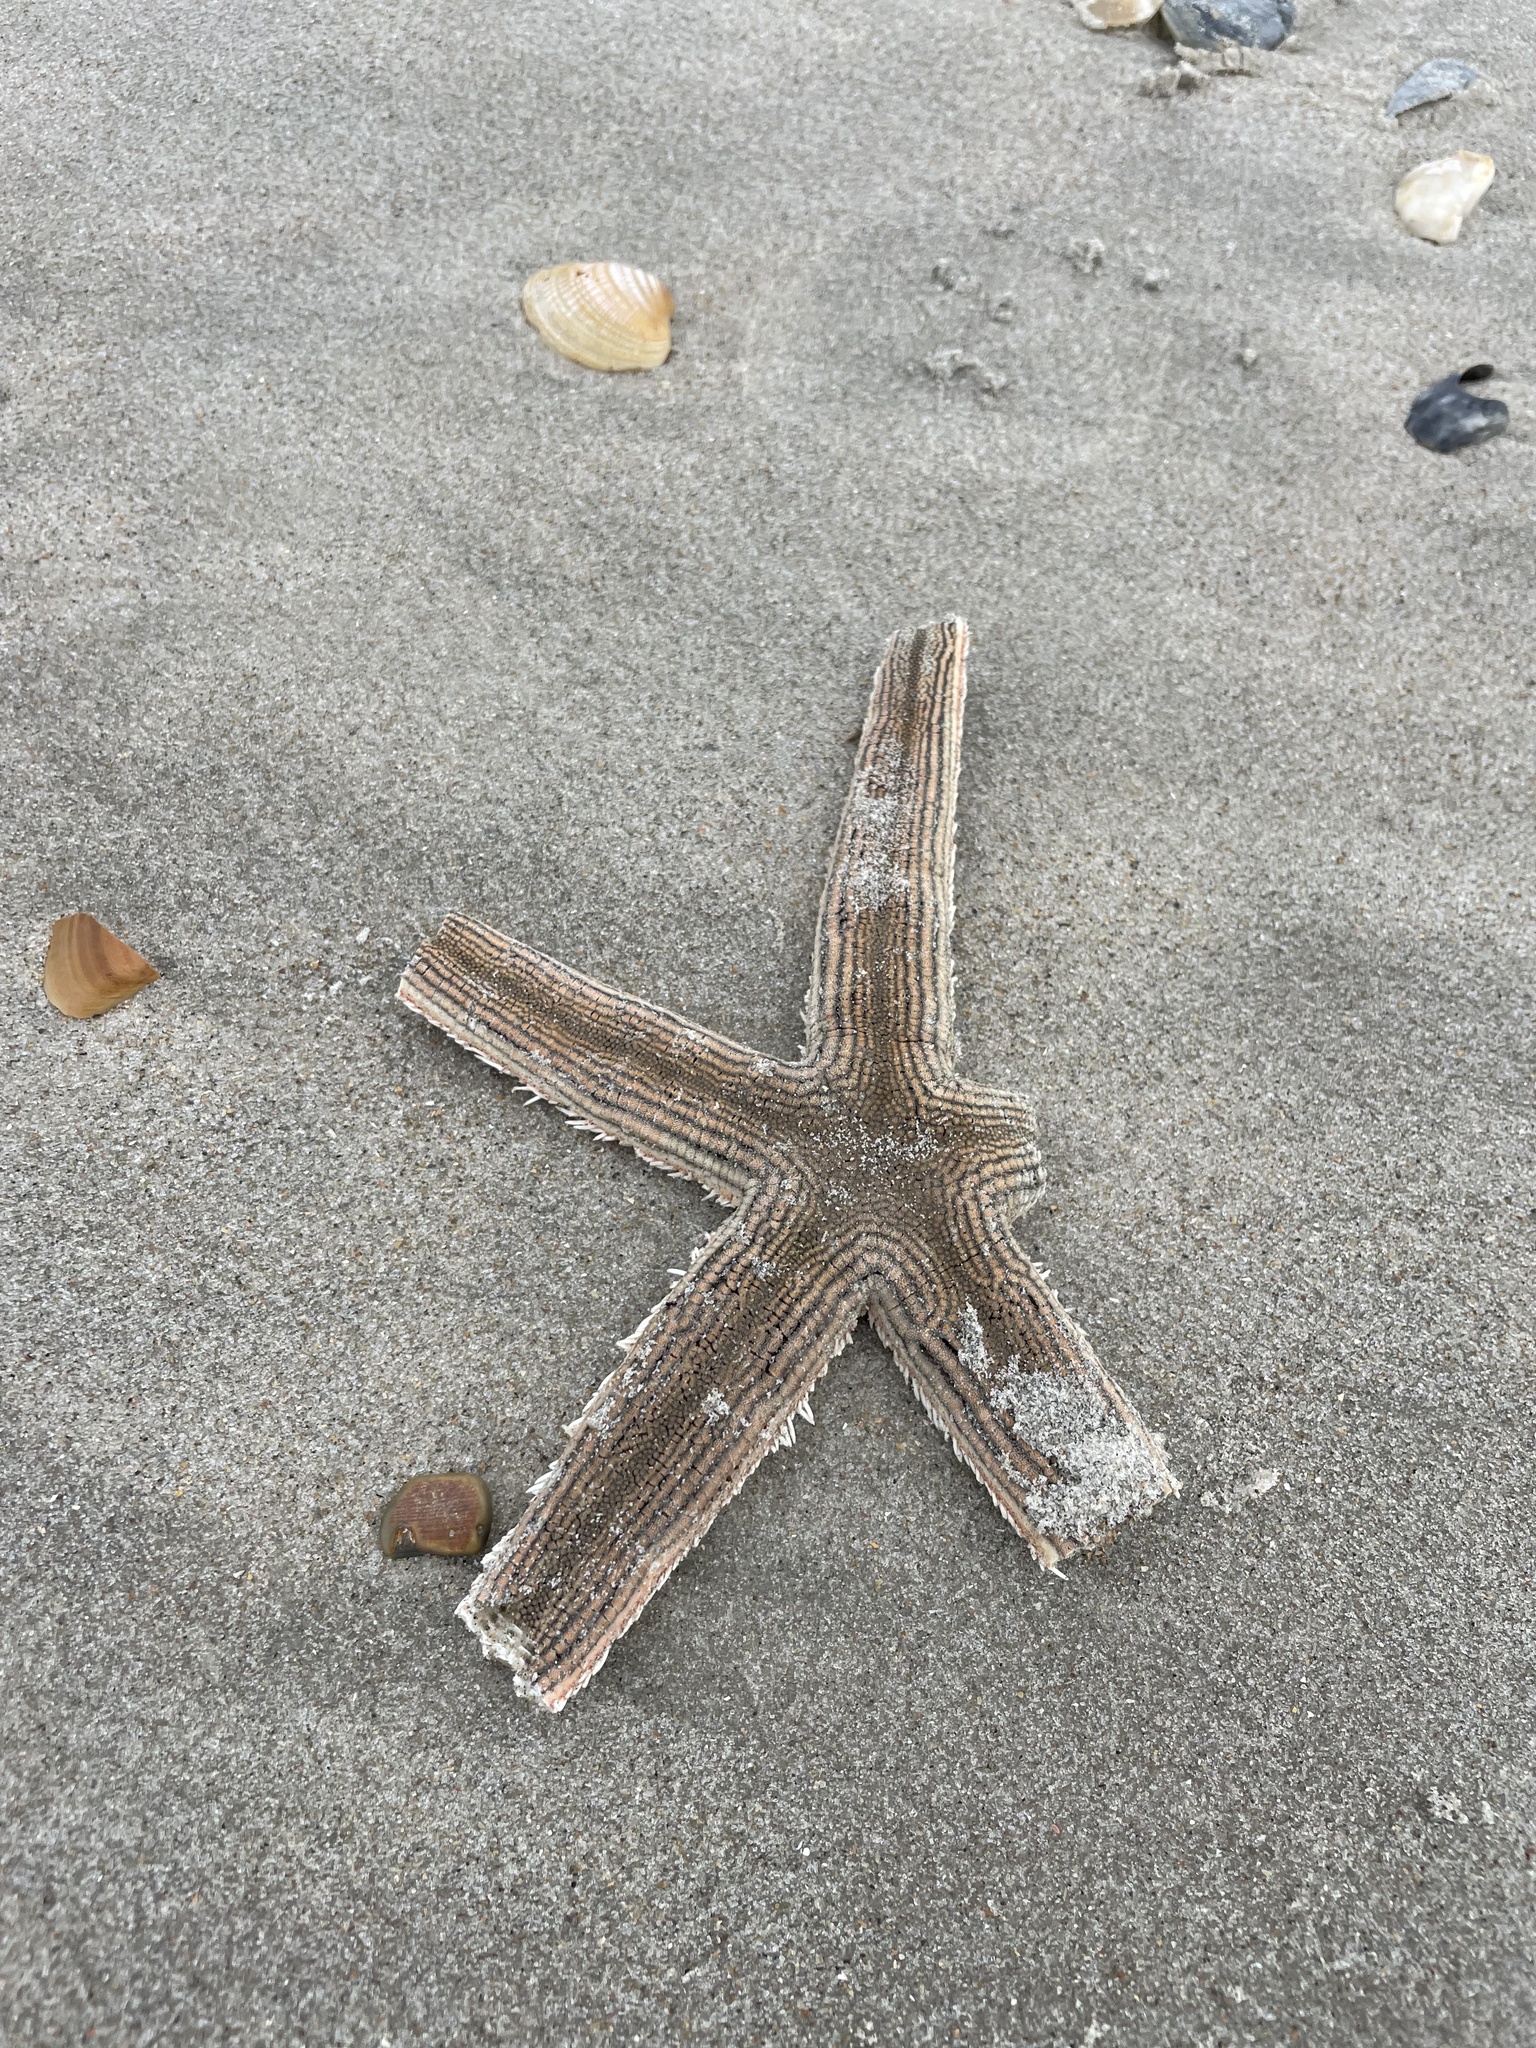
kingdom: Animalia
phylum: Echinodermata
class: Asteroidea
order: Paxillosida
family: Luidiidae
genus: Luidia
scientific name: Luidia clathrata
